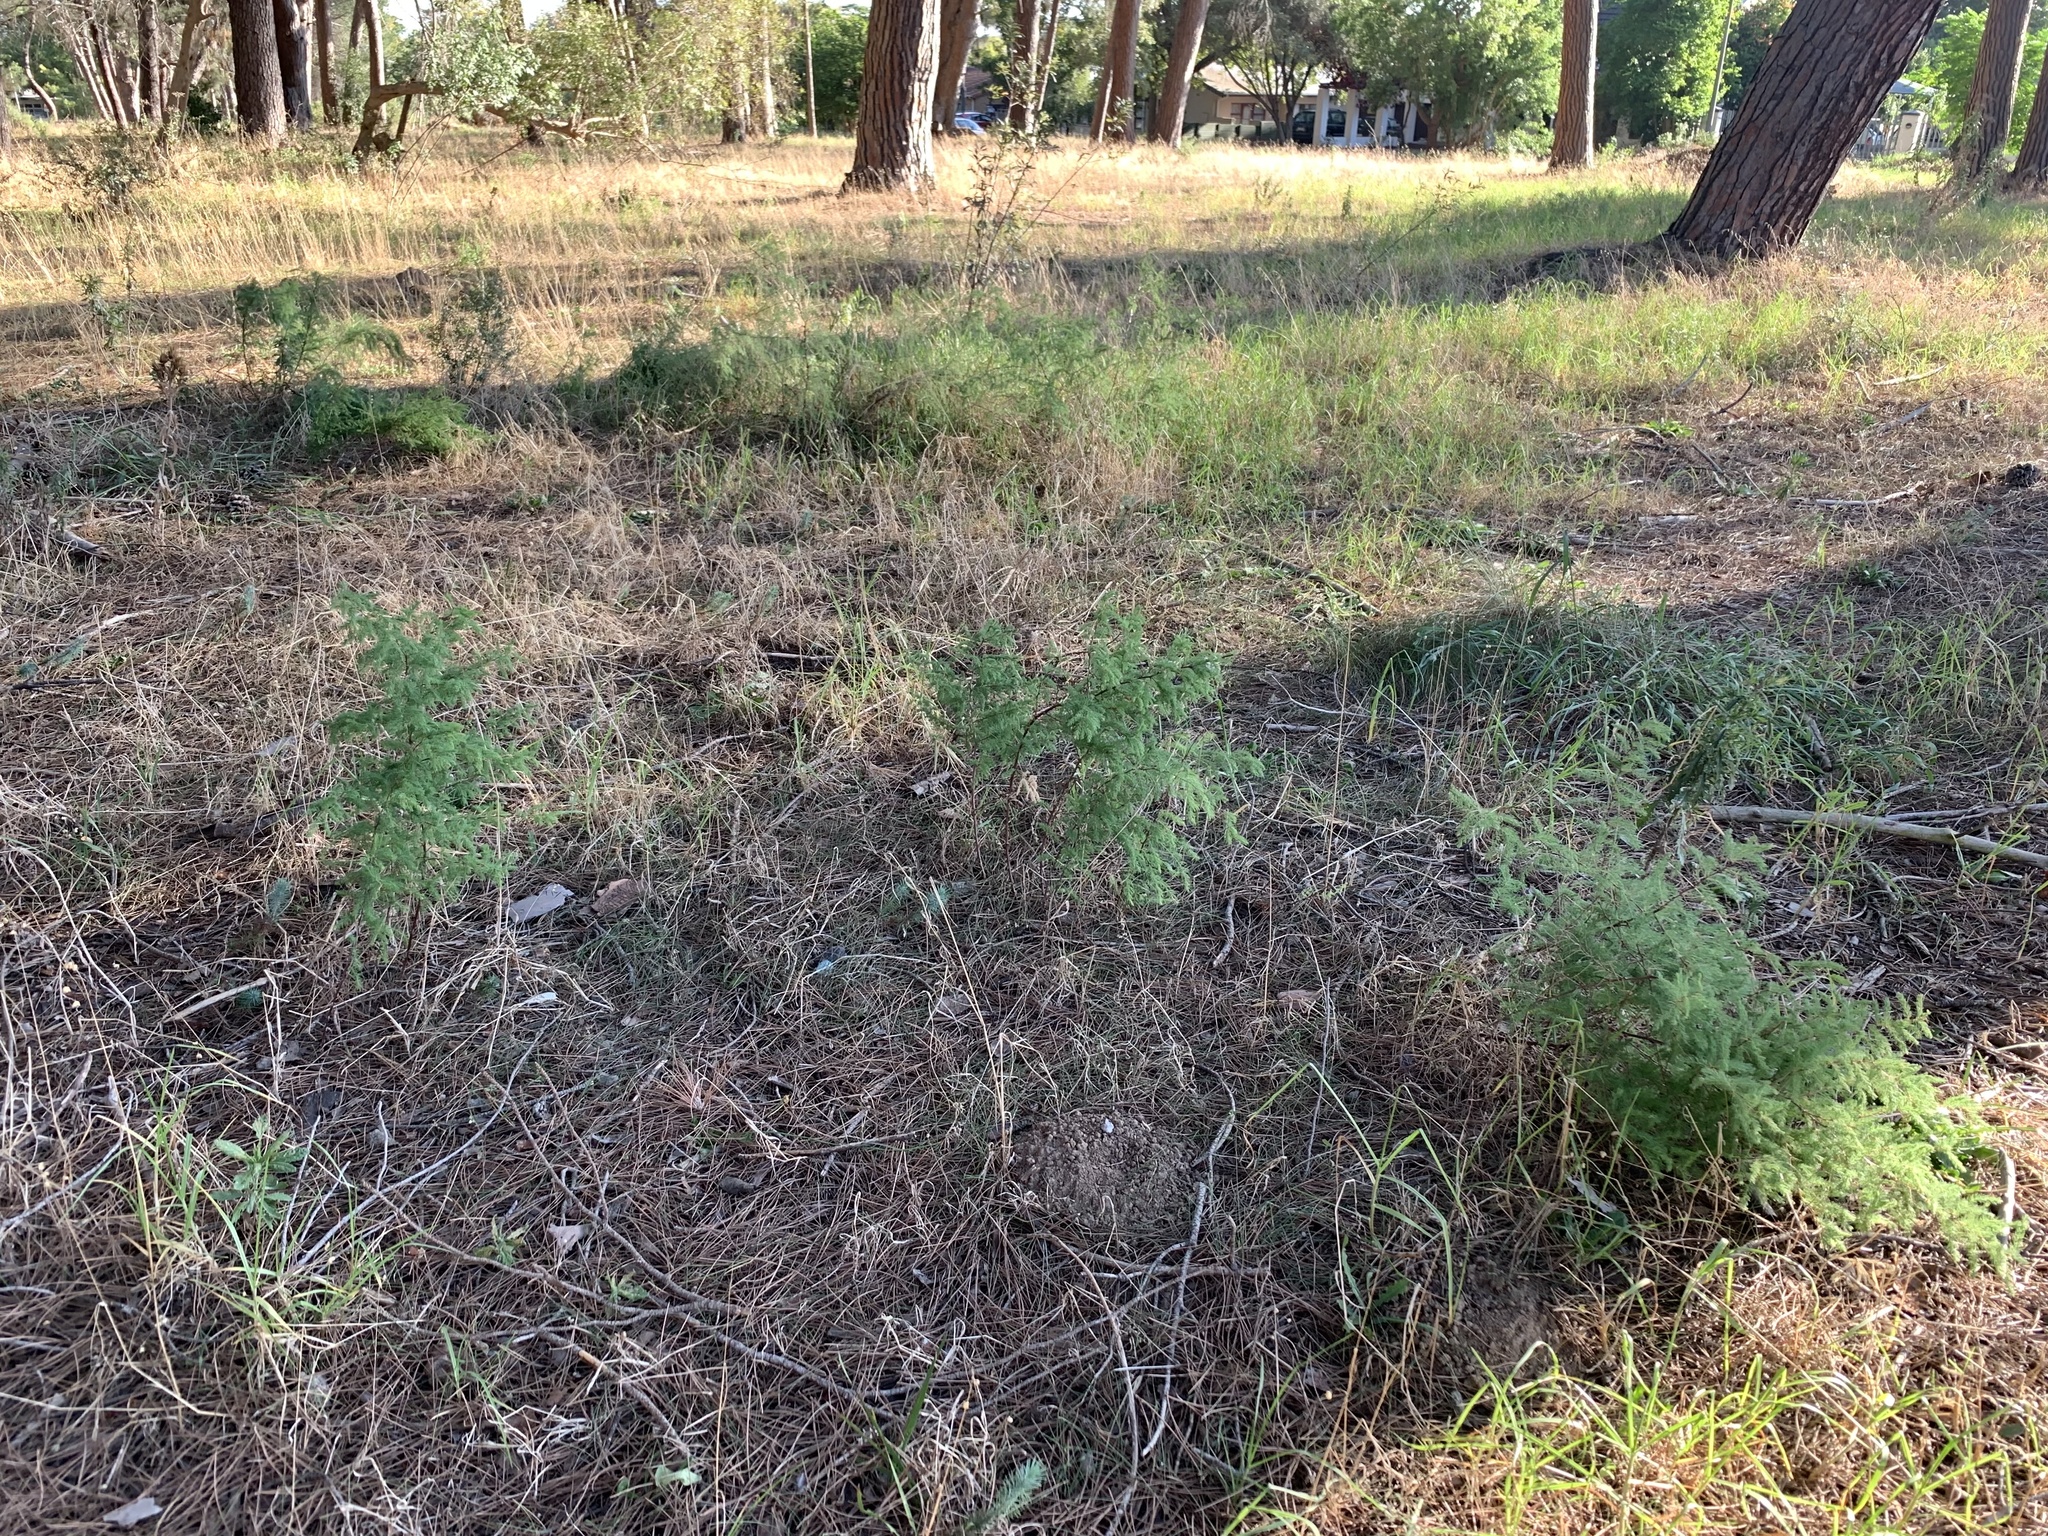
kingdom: Plantae
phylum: Tracheophyta
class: Liliopsida
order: Asparagales
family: Asparagaceae
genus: Asparagus
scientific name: Asparagus rubicundus
